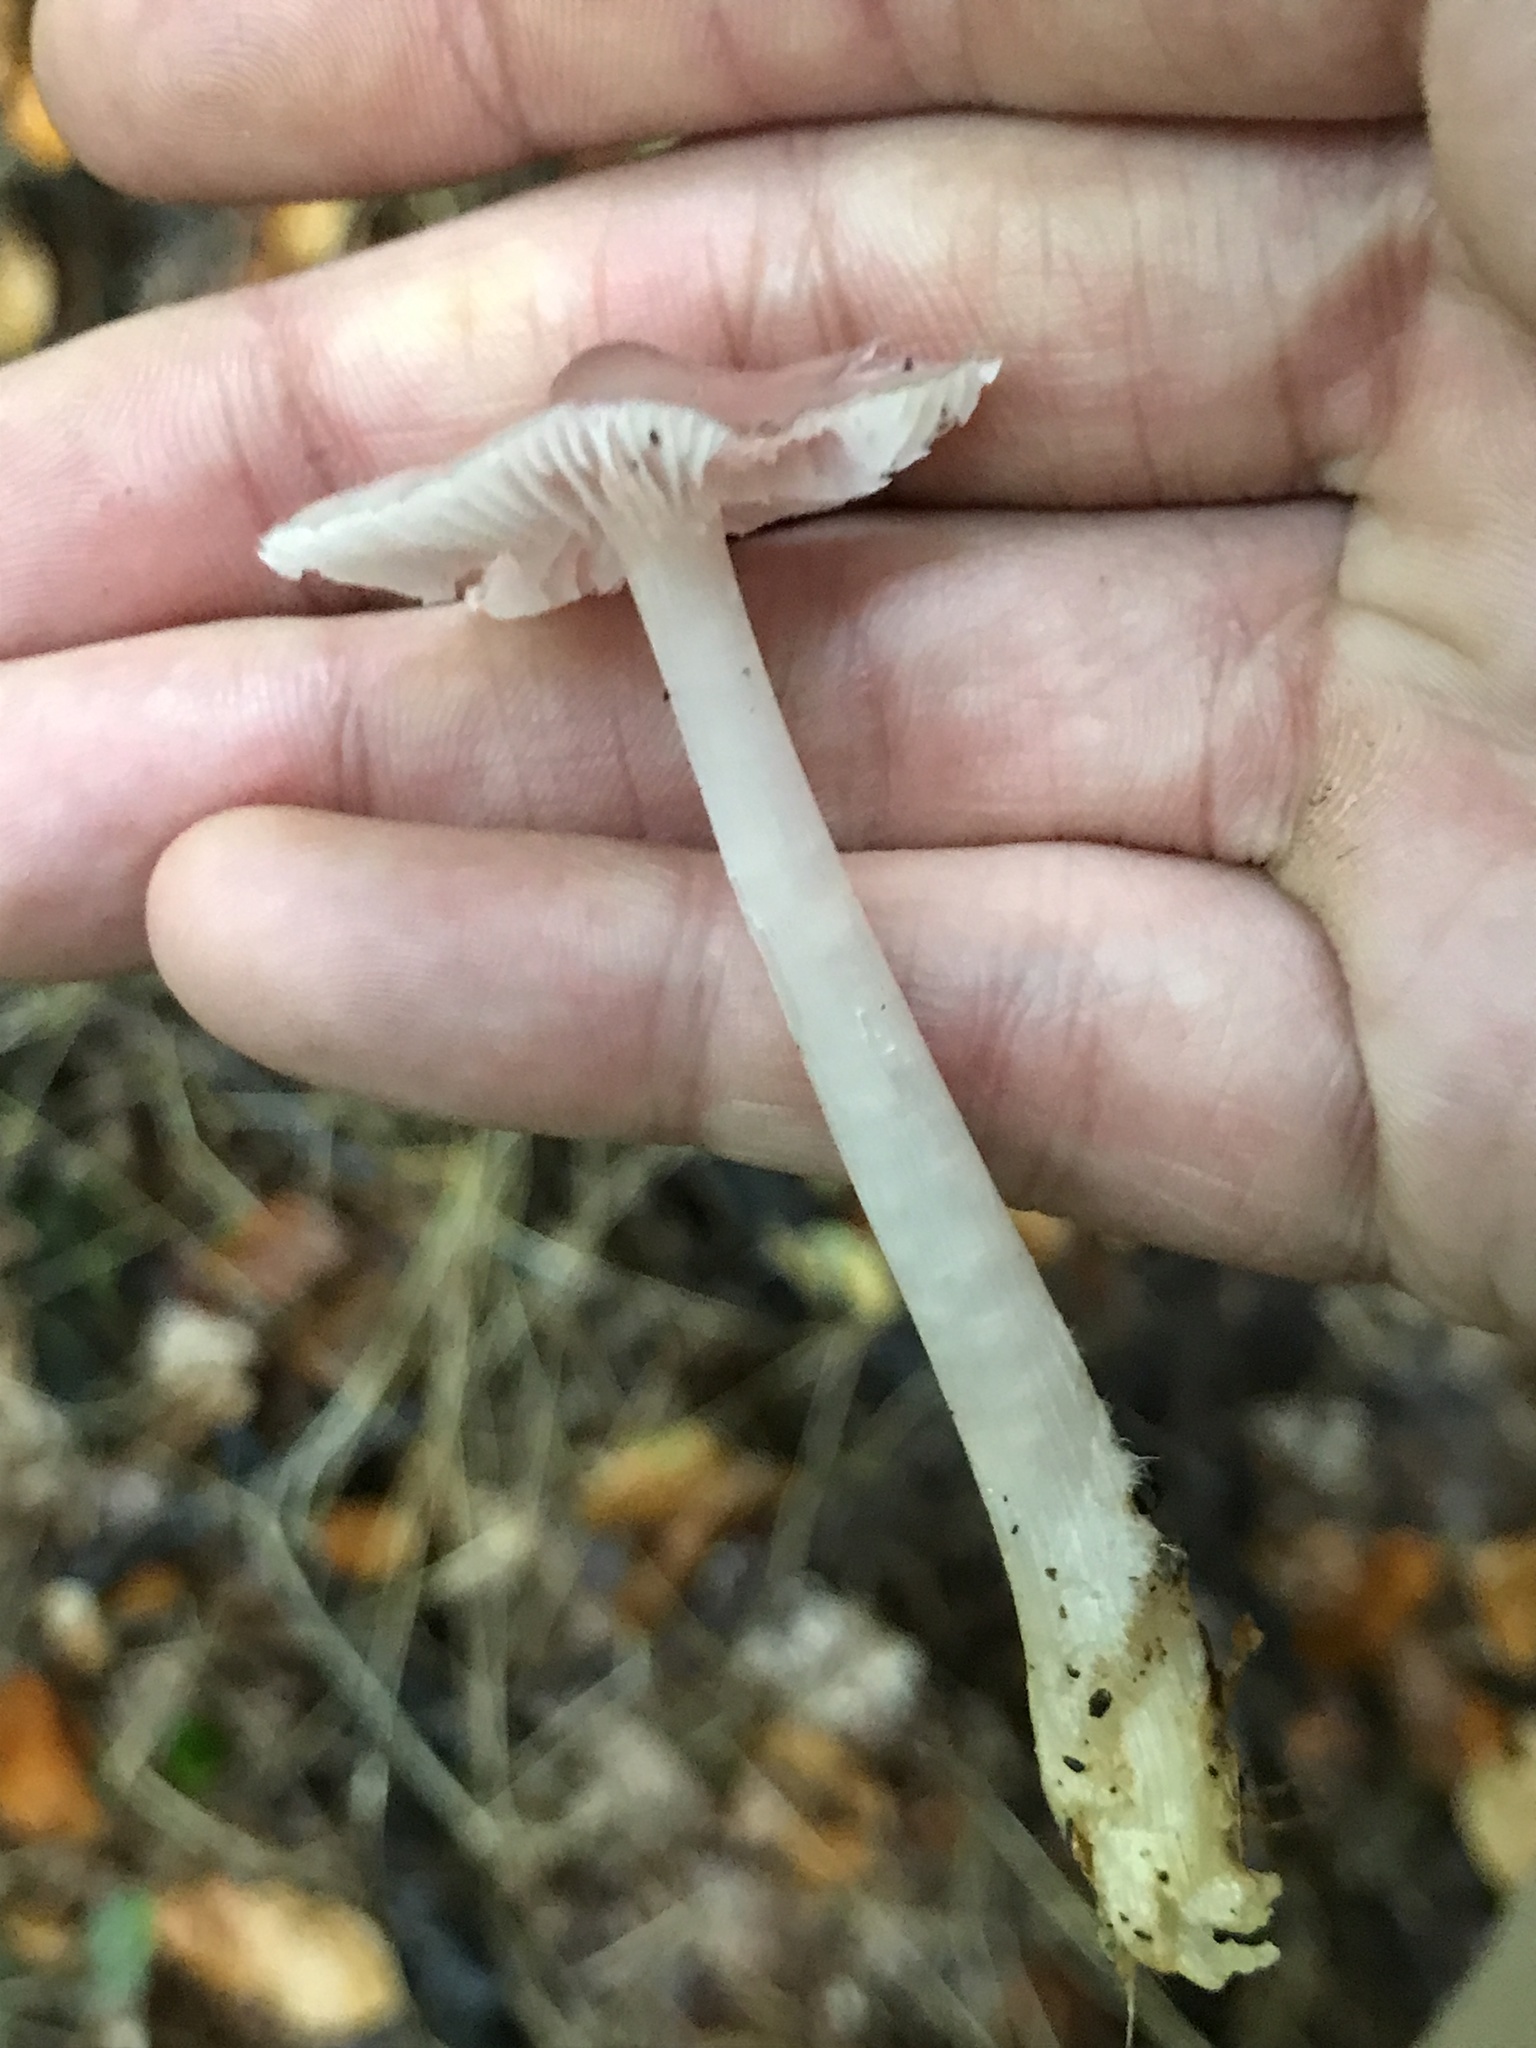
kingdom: Fungi
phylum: Basidiomycota
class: Agaricomycetes
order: Agaricales
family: Mycenaceae
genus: Mycena
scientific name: Mycena rosea
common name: Rosy bonnet
